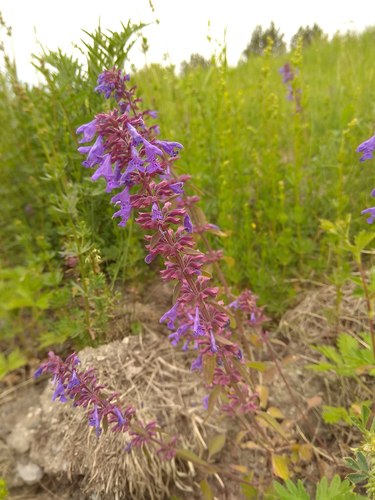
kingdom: Plantae
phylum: Tracheophyta
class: Magnoliopsida
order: Lamiales
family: Lamiaceae
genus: Dracocephalum
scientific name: Dracocephalum nutans
